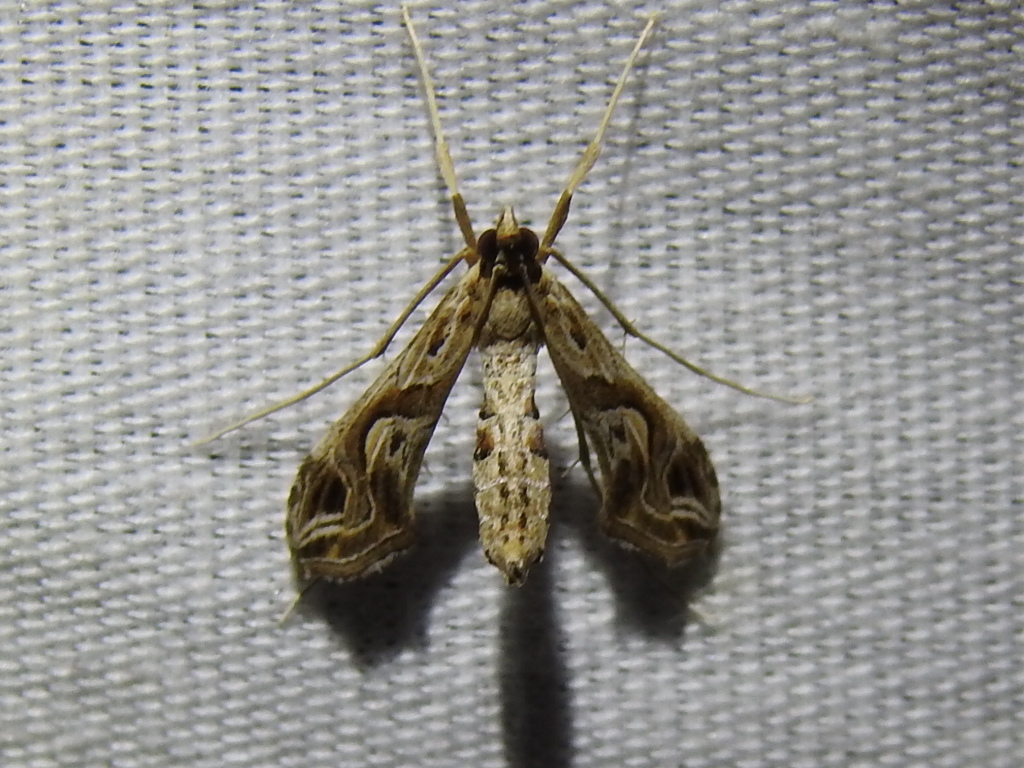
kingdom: Animalia
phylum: Arthropoda
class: Insecta
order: Lepidoptera
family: Crambidae
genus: Lineodes
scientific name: Lineodes integra
